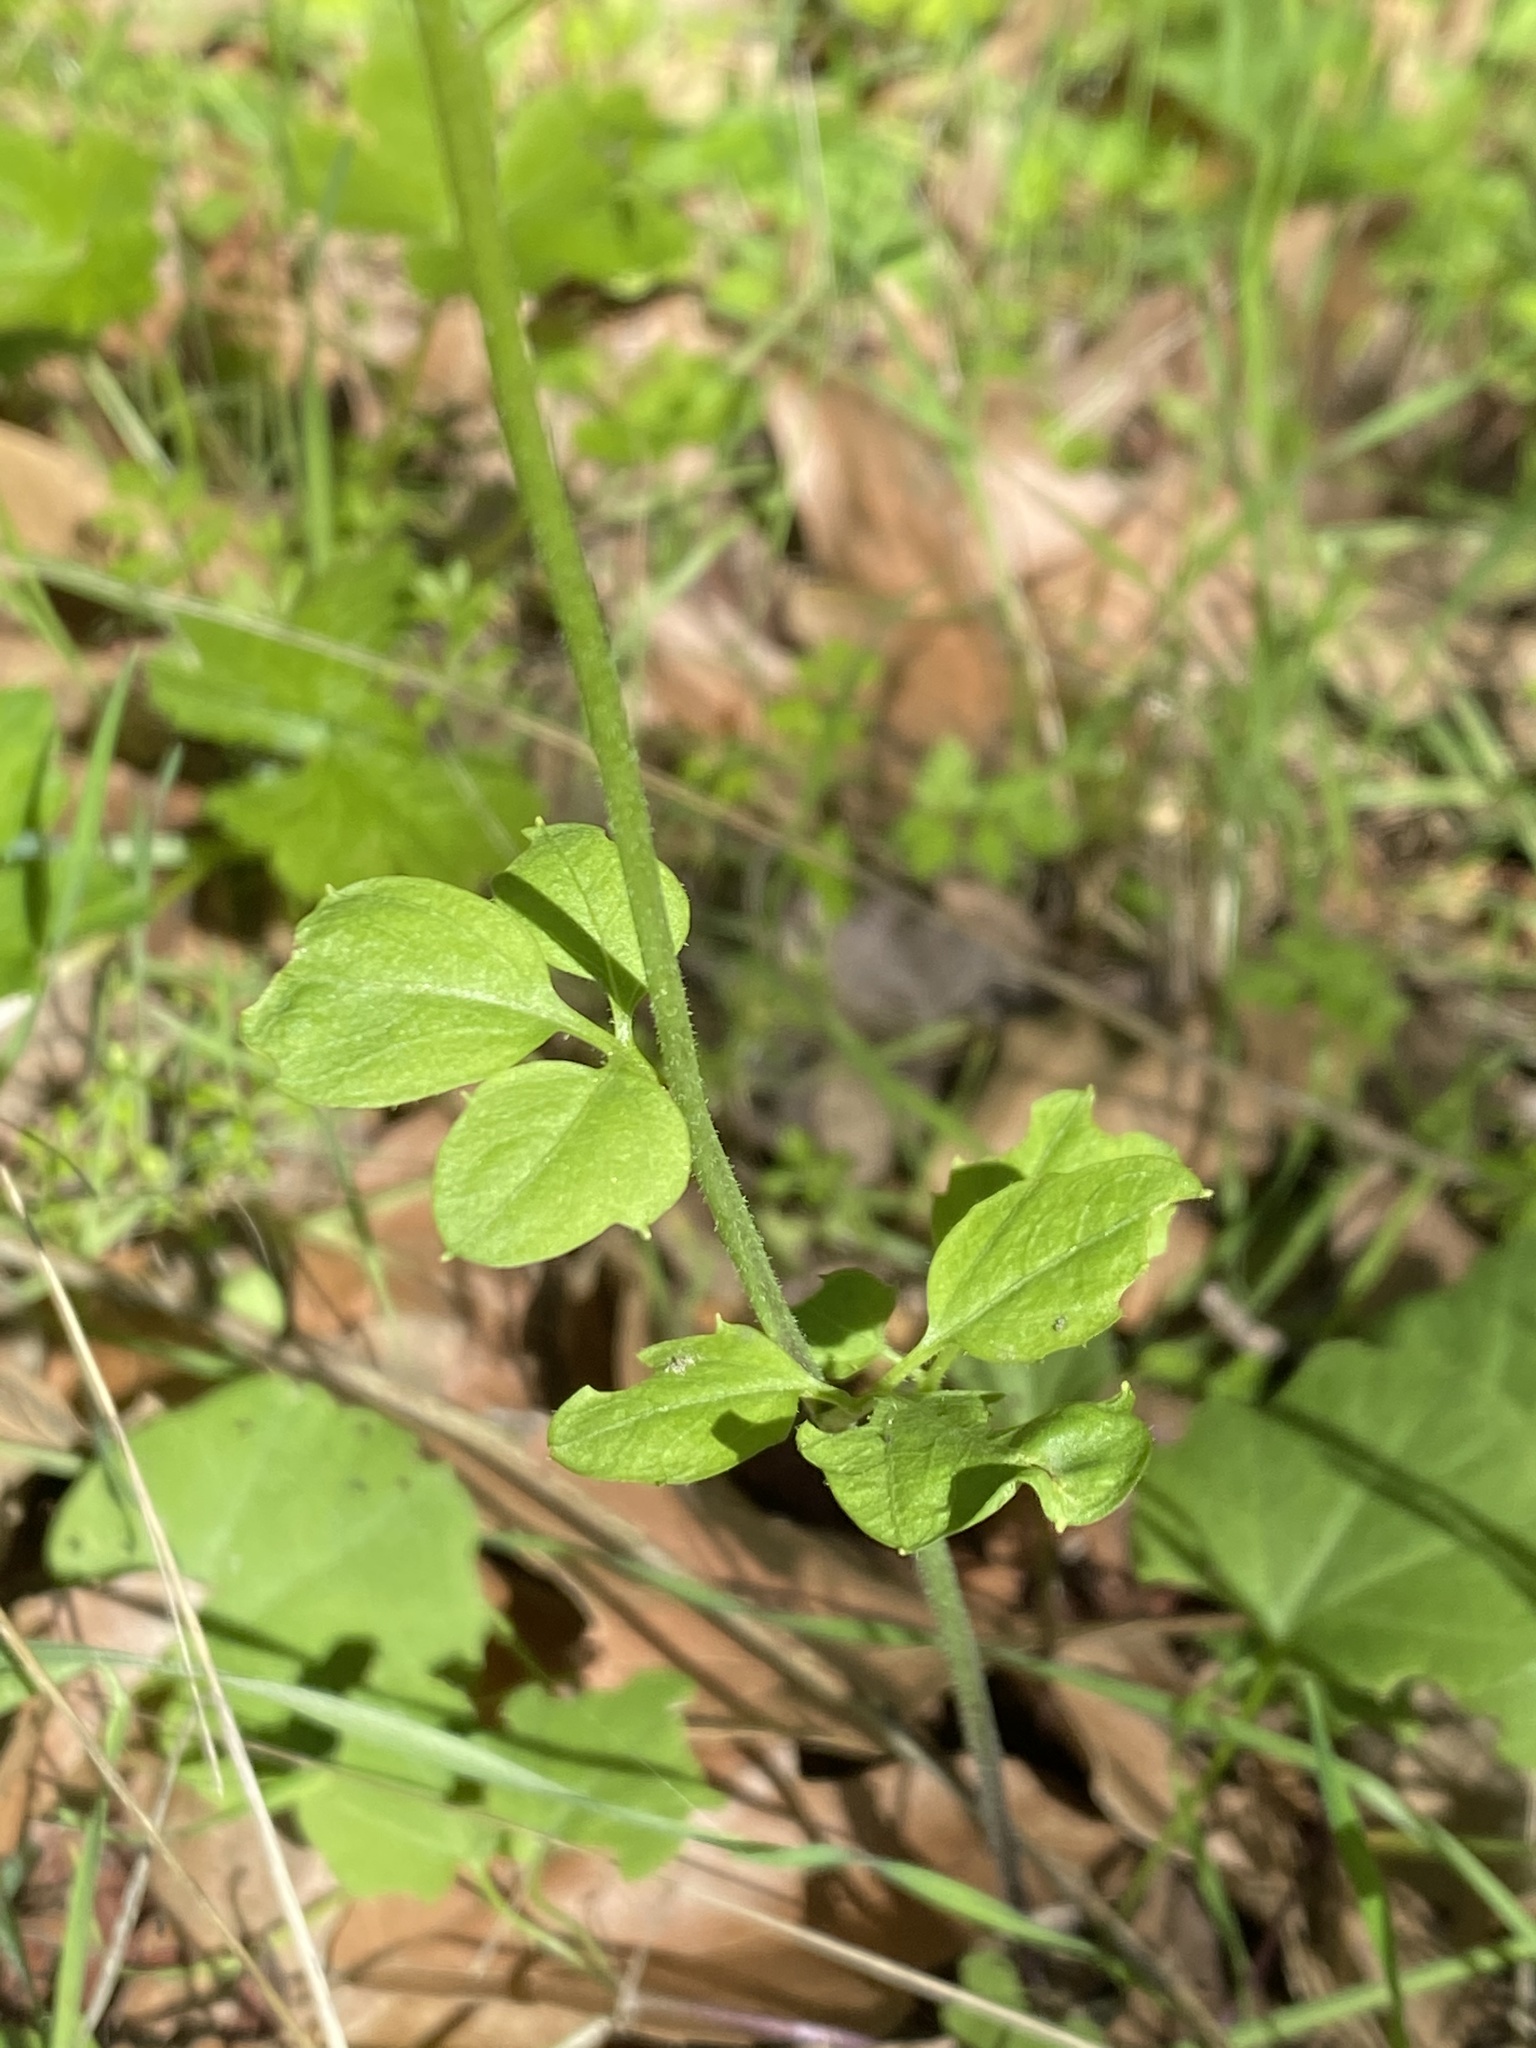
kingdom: Plantae
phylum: Tracheophyta
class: Magnoliopsida
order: Brassicales
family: Brassicaceae
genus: Cardamine
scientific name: Cardamine californica
